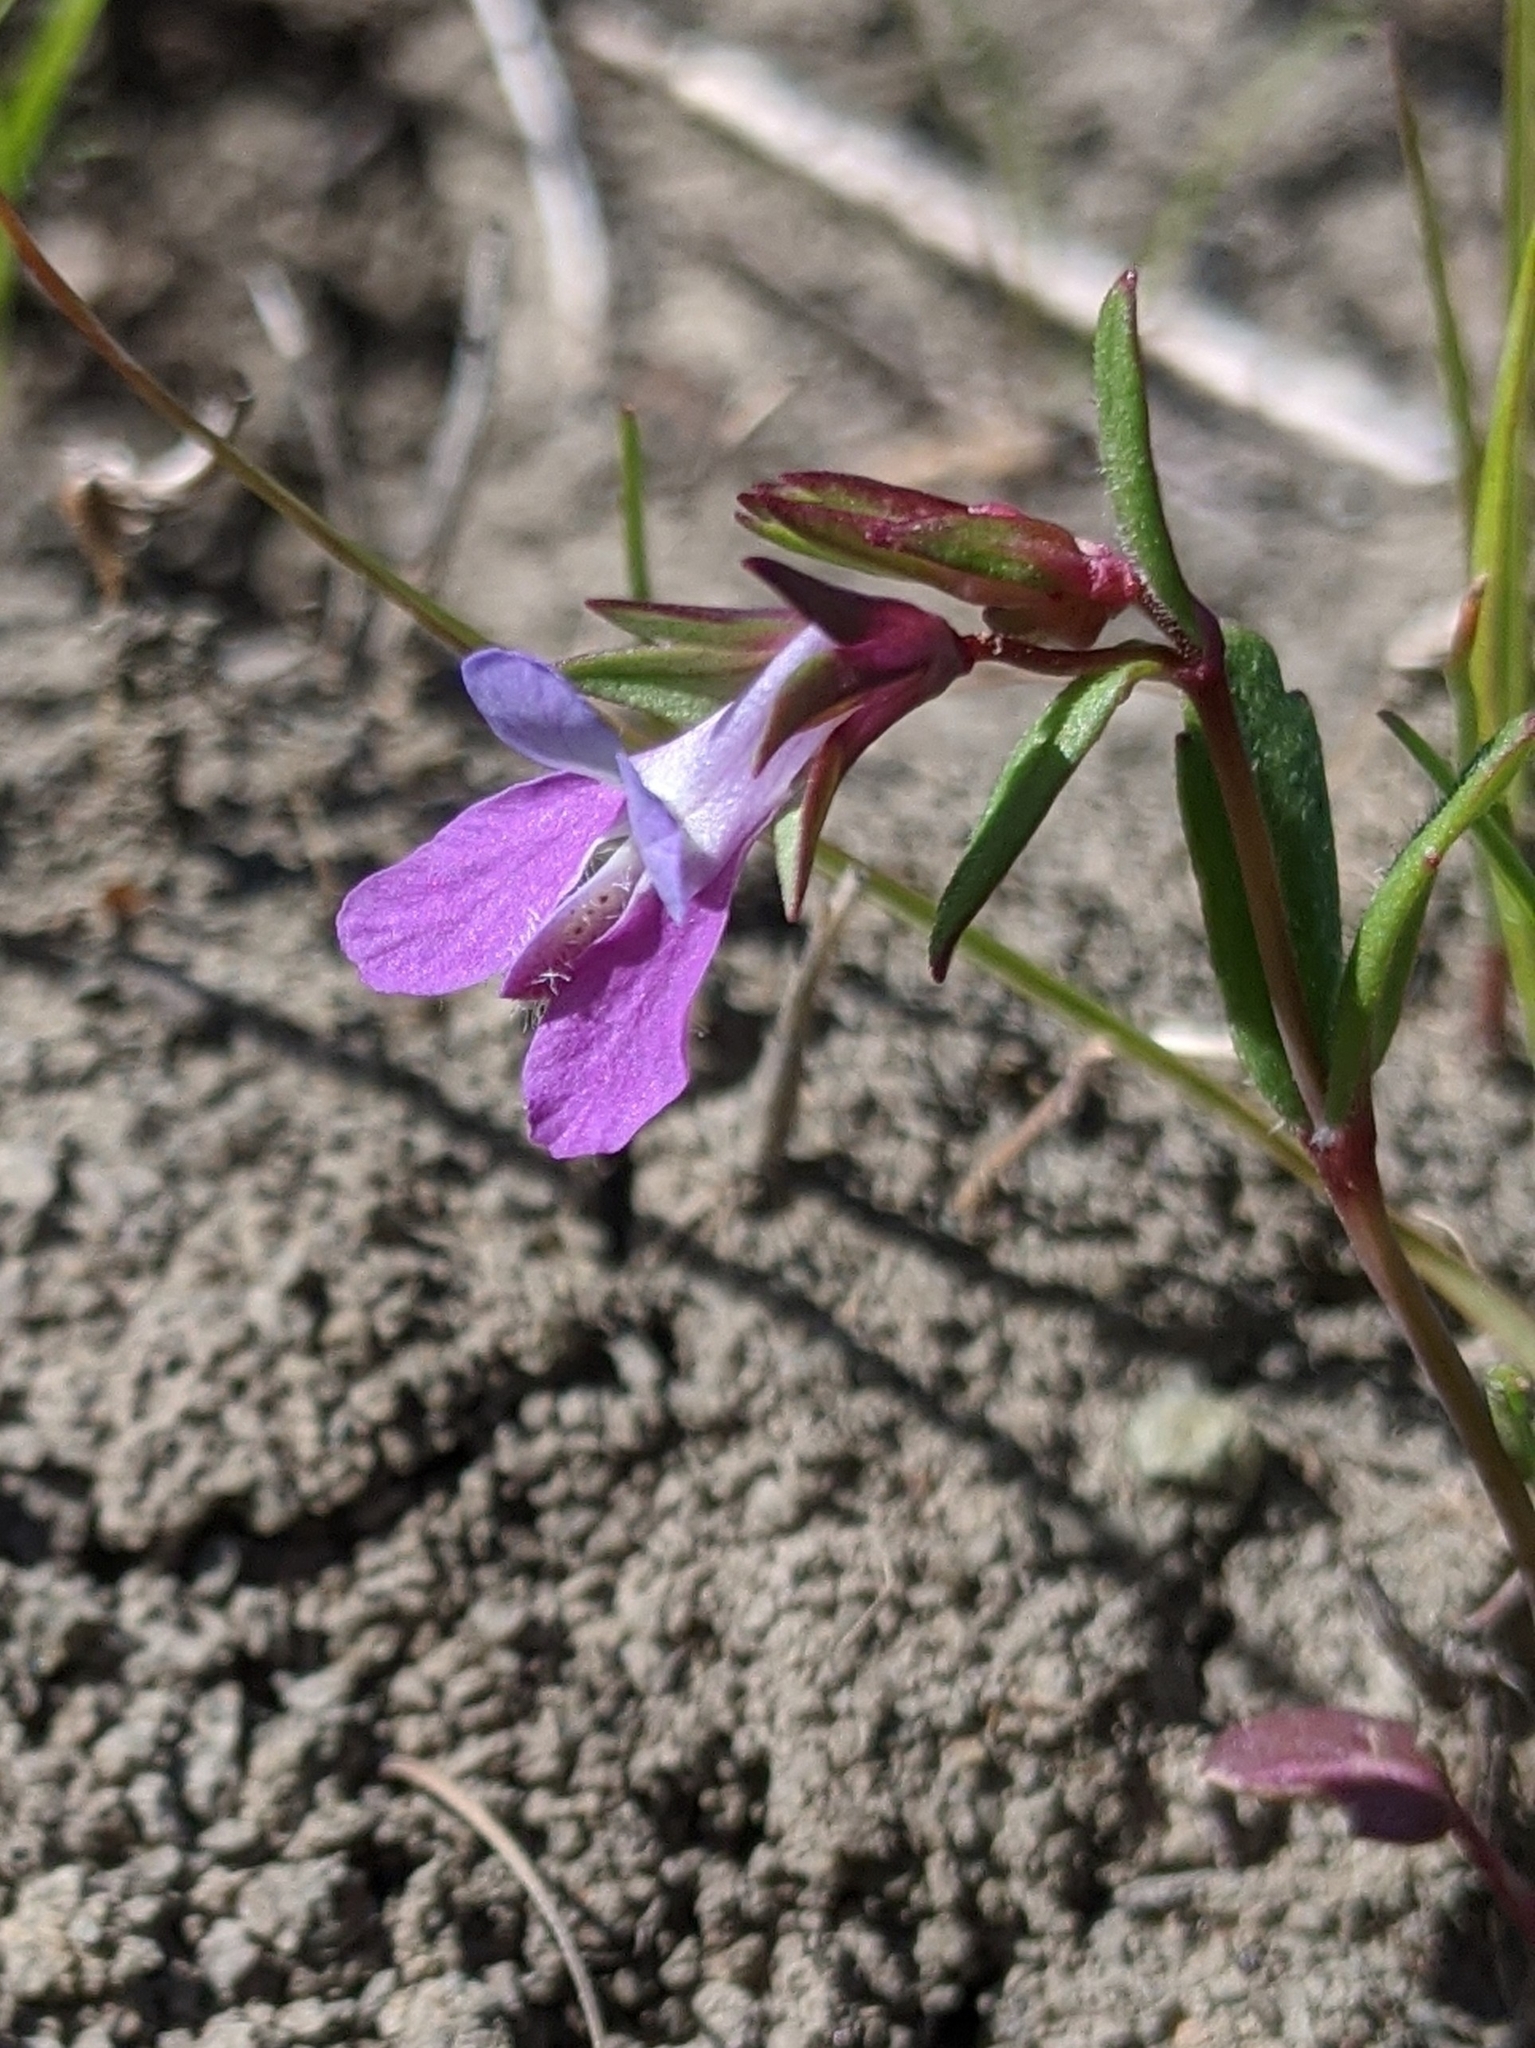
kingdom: Plantae
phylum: Tracheophyta
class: Magnoliopsida
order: Lamiales
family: Plantaginaceae
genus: Collinsia
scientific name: Collinsia sparsiflora
